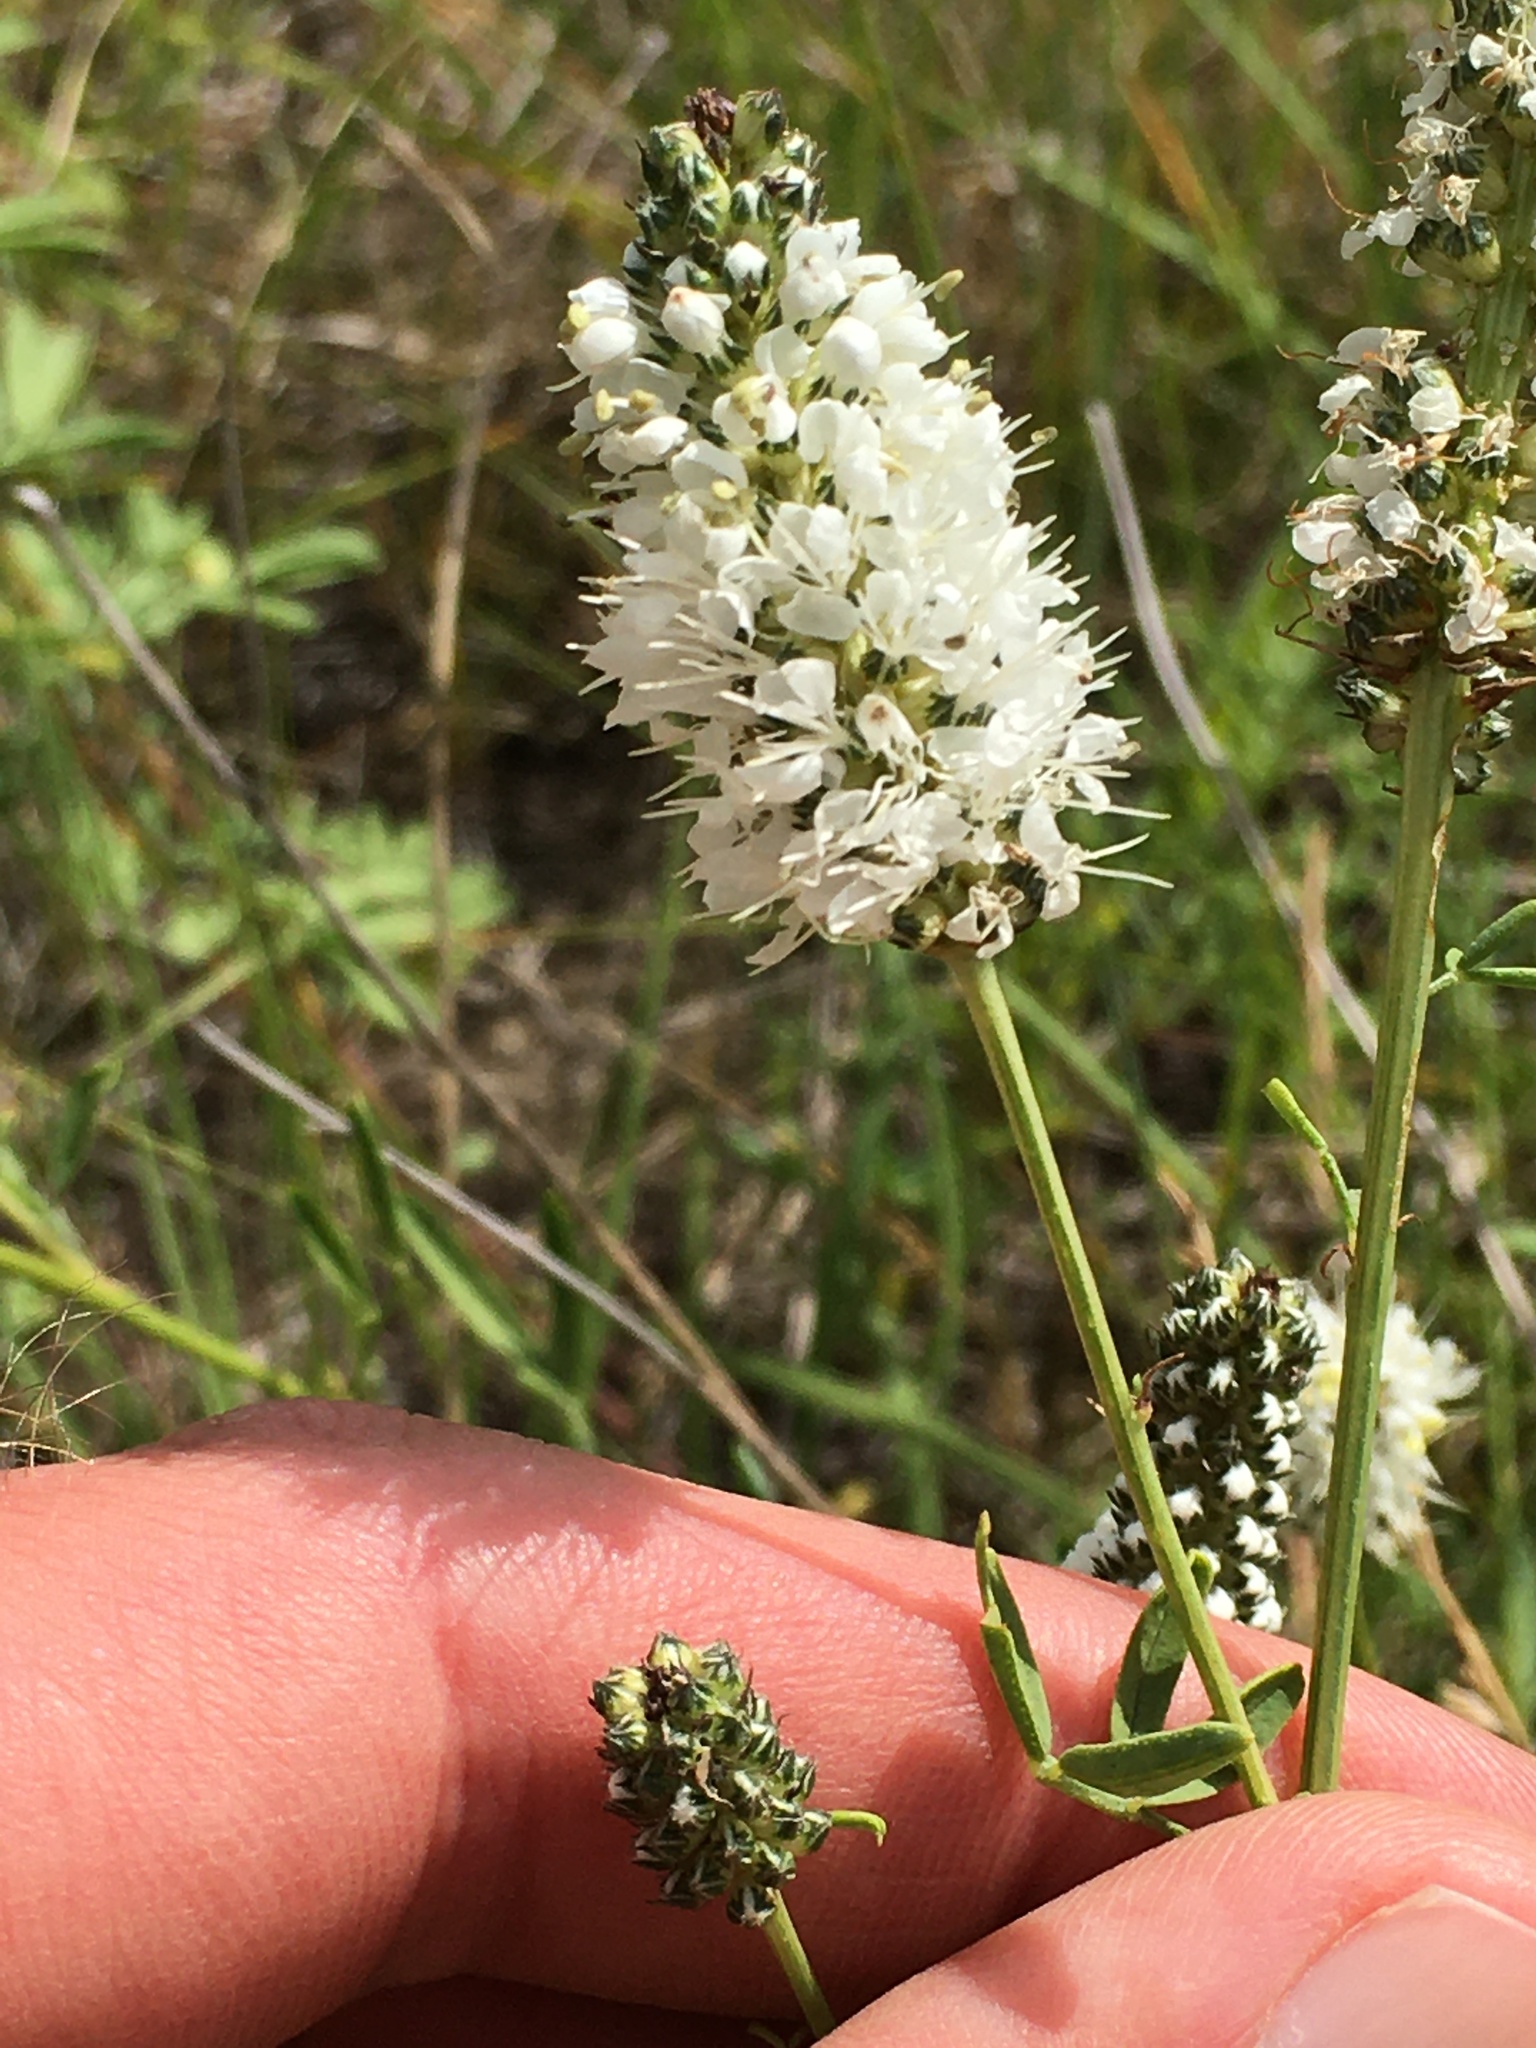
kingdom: Plantae
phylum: Tracheophyta
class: Magnoliopsida
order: Fabales
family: Fabaceae
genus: Dalea
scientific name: Dalea candida
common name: White prairie-clover
